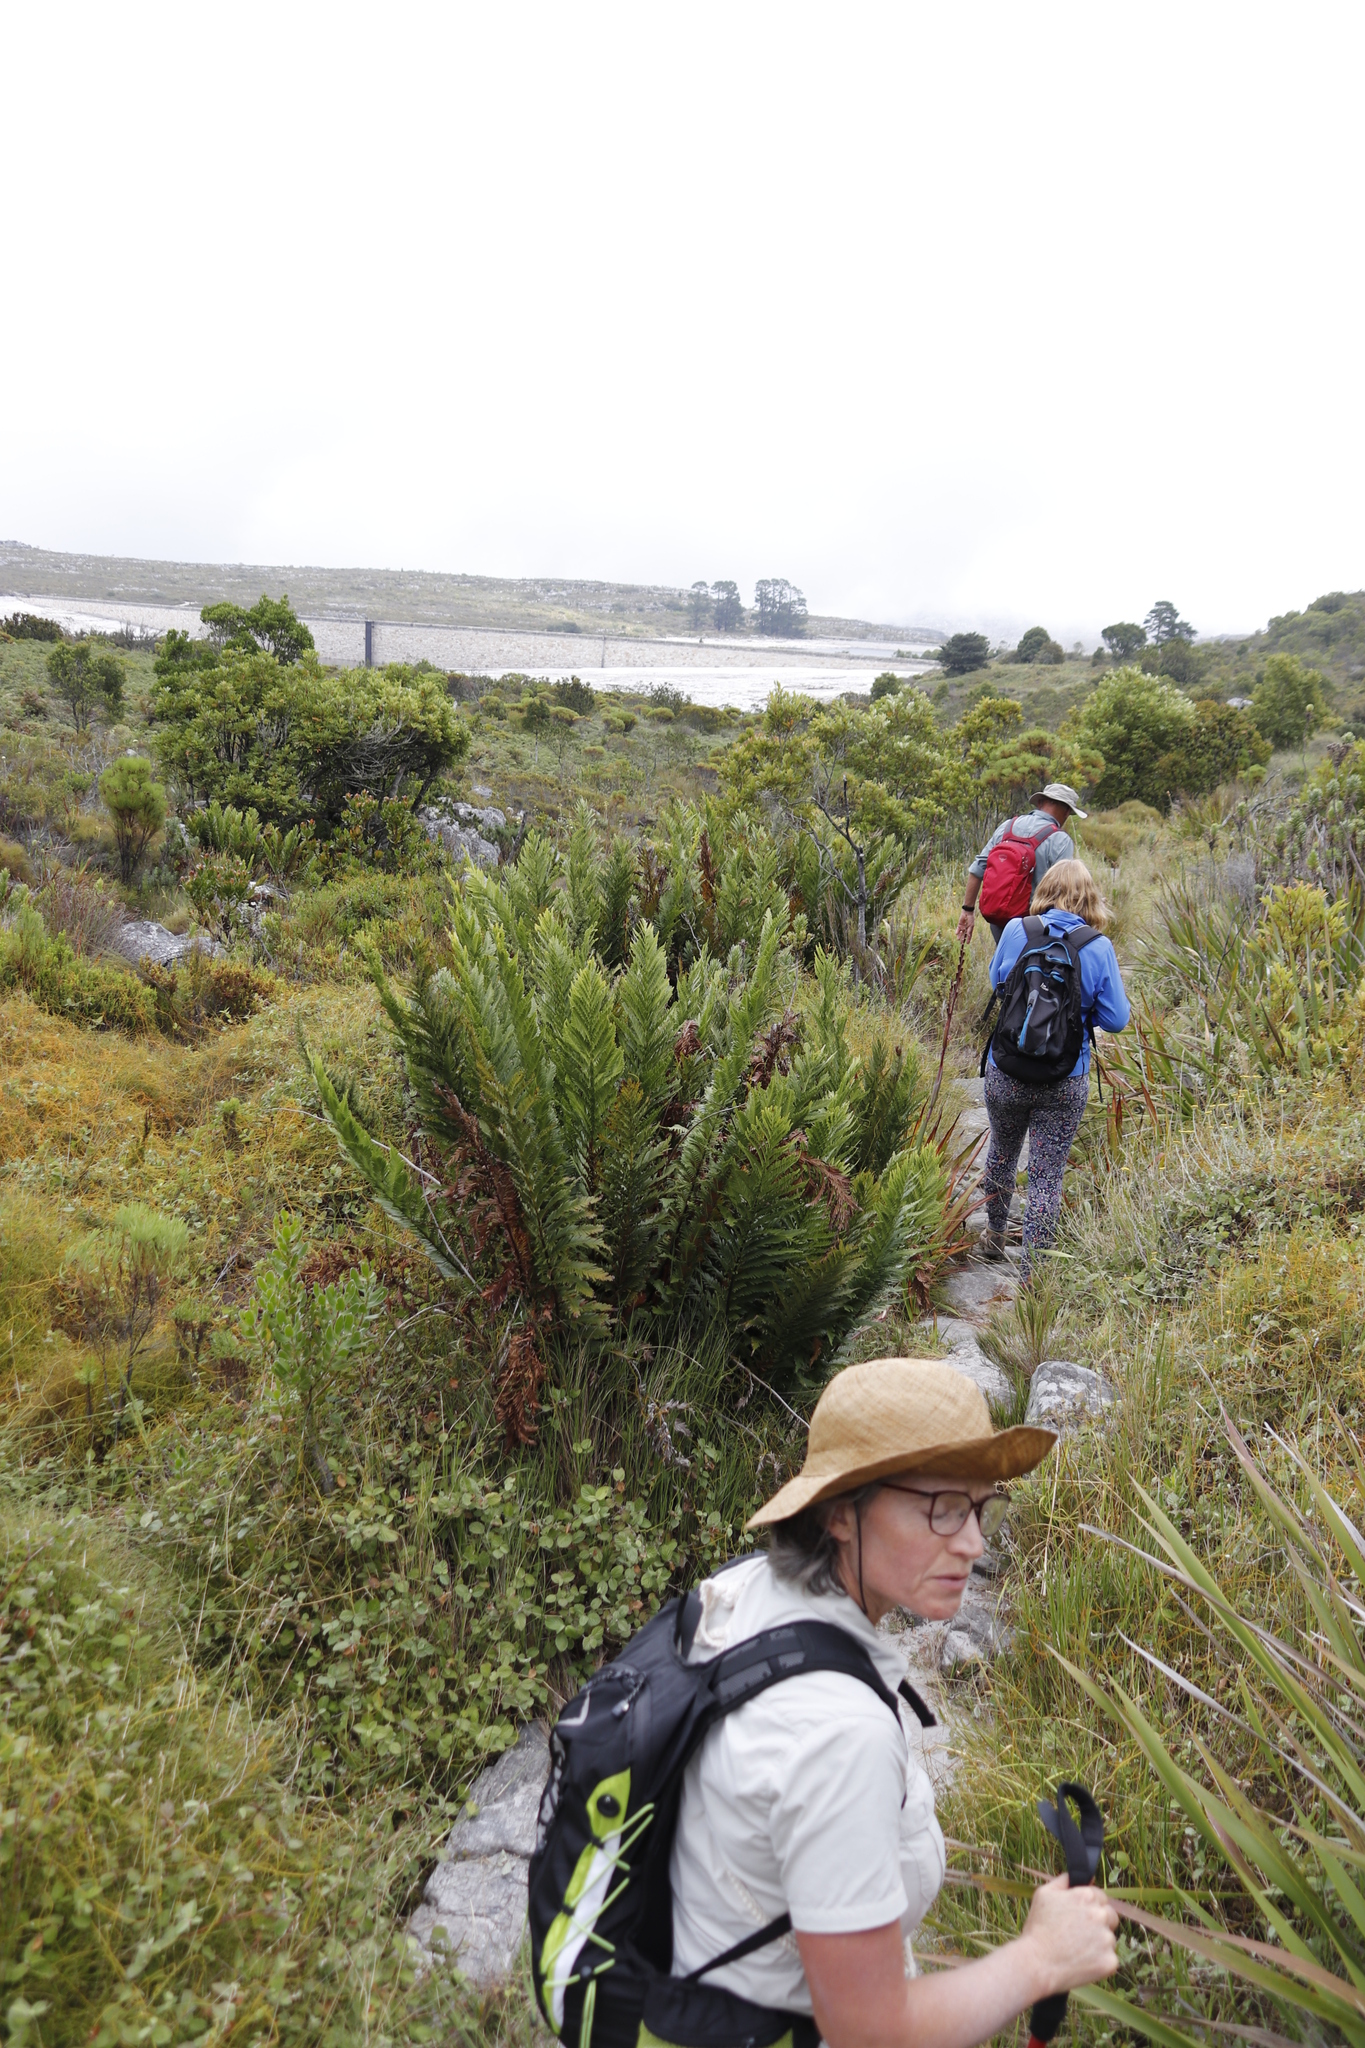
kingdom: Plantae
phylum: Tracheophyta
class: Polypodiopsida
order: Osmundales
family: Osmundaceae
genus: Todea
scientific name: Todea barbara
